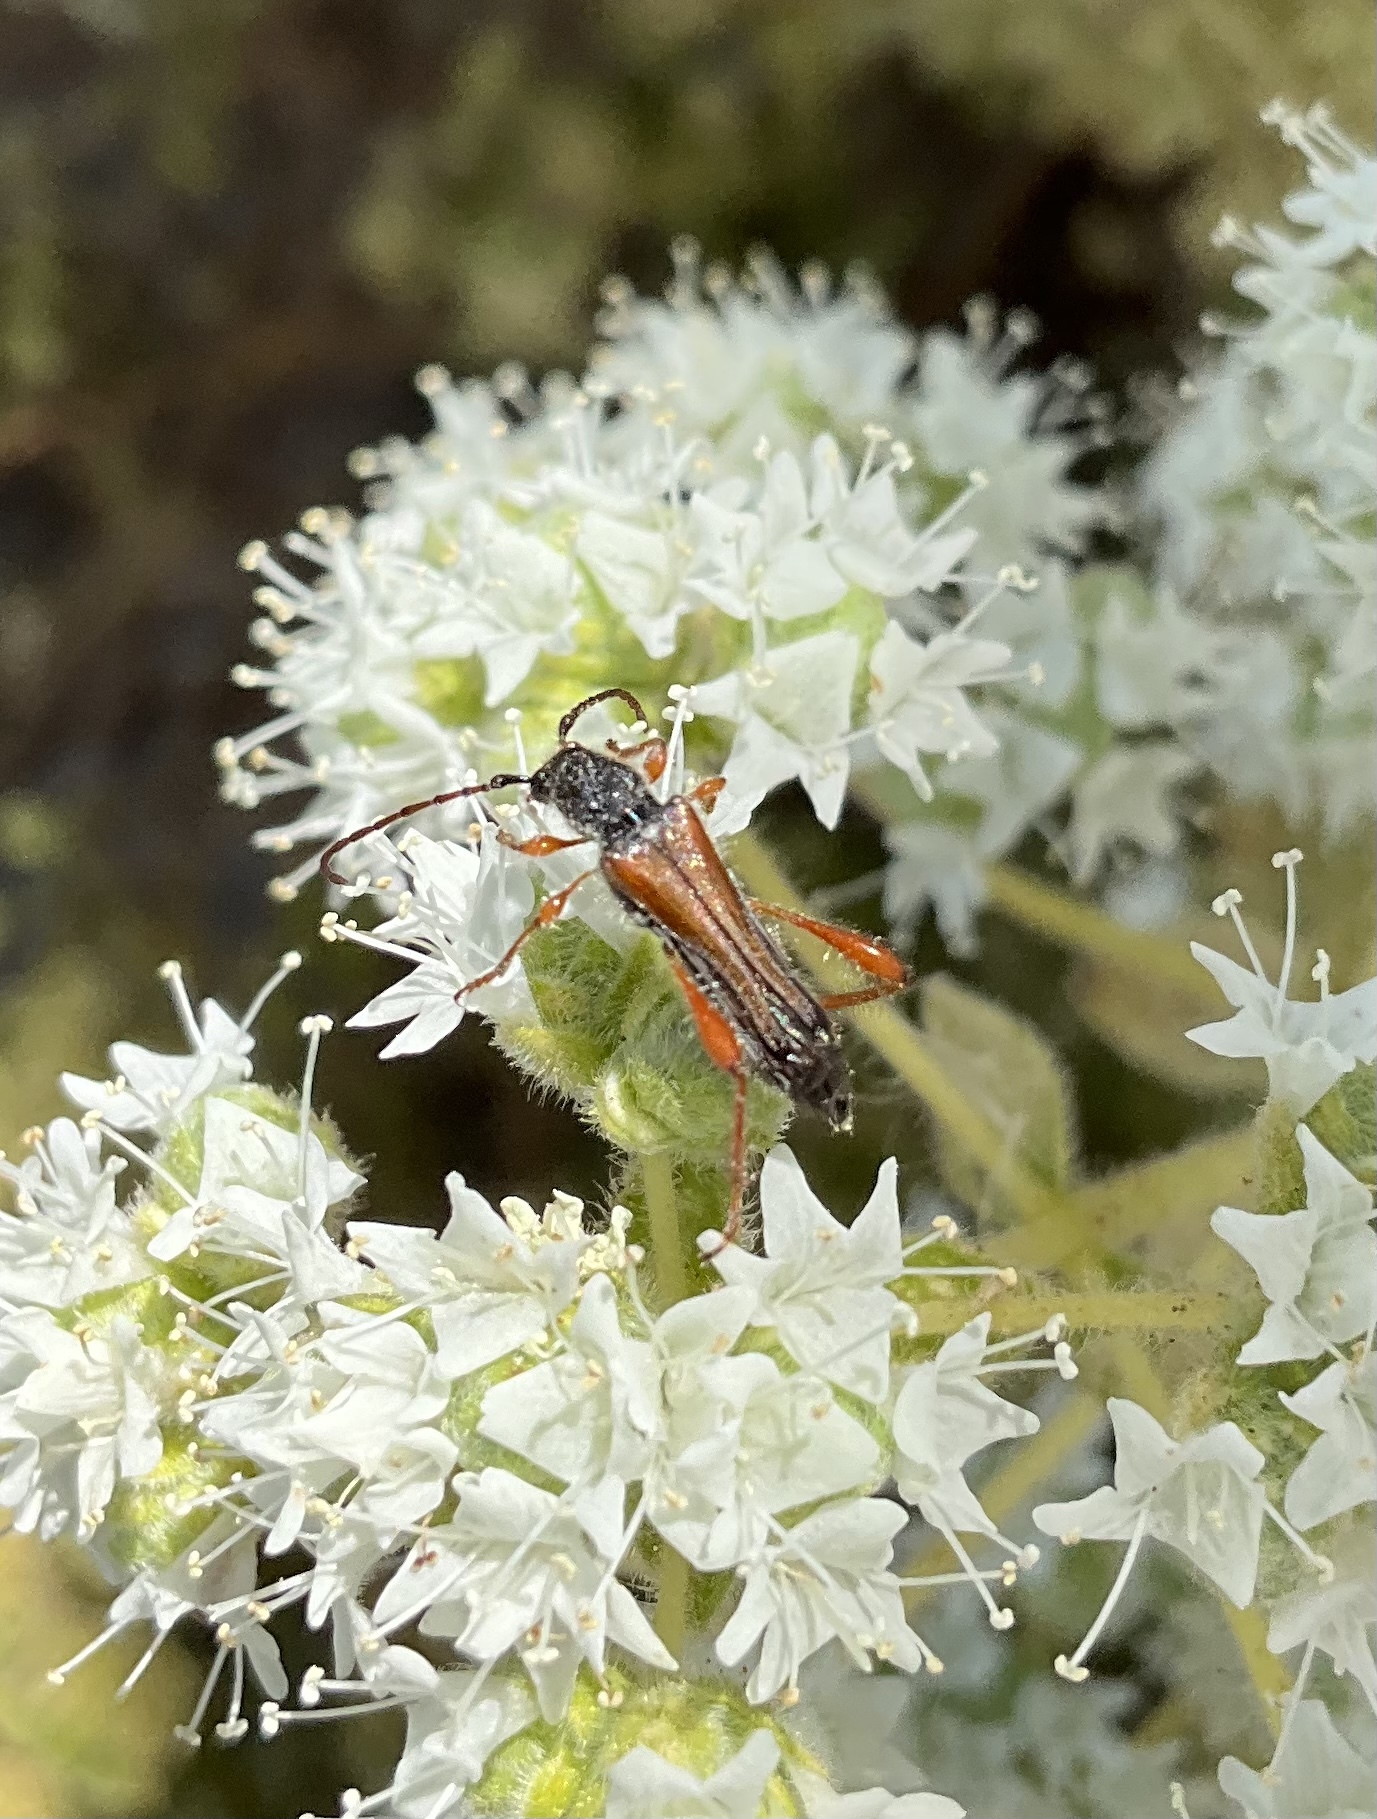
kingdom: Animalia
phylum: Arthropoda
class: Insecta
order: Coleoptera
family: Cerambycidae
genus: Stenopterus
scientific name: Stenopterus creticus
